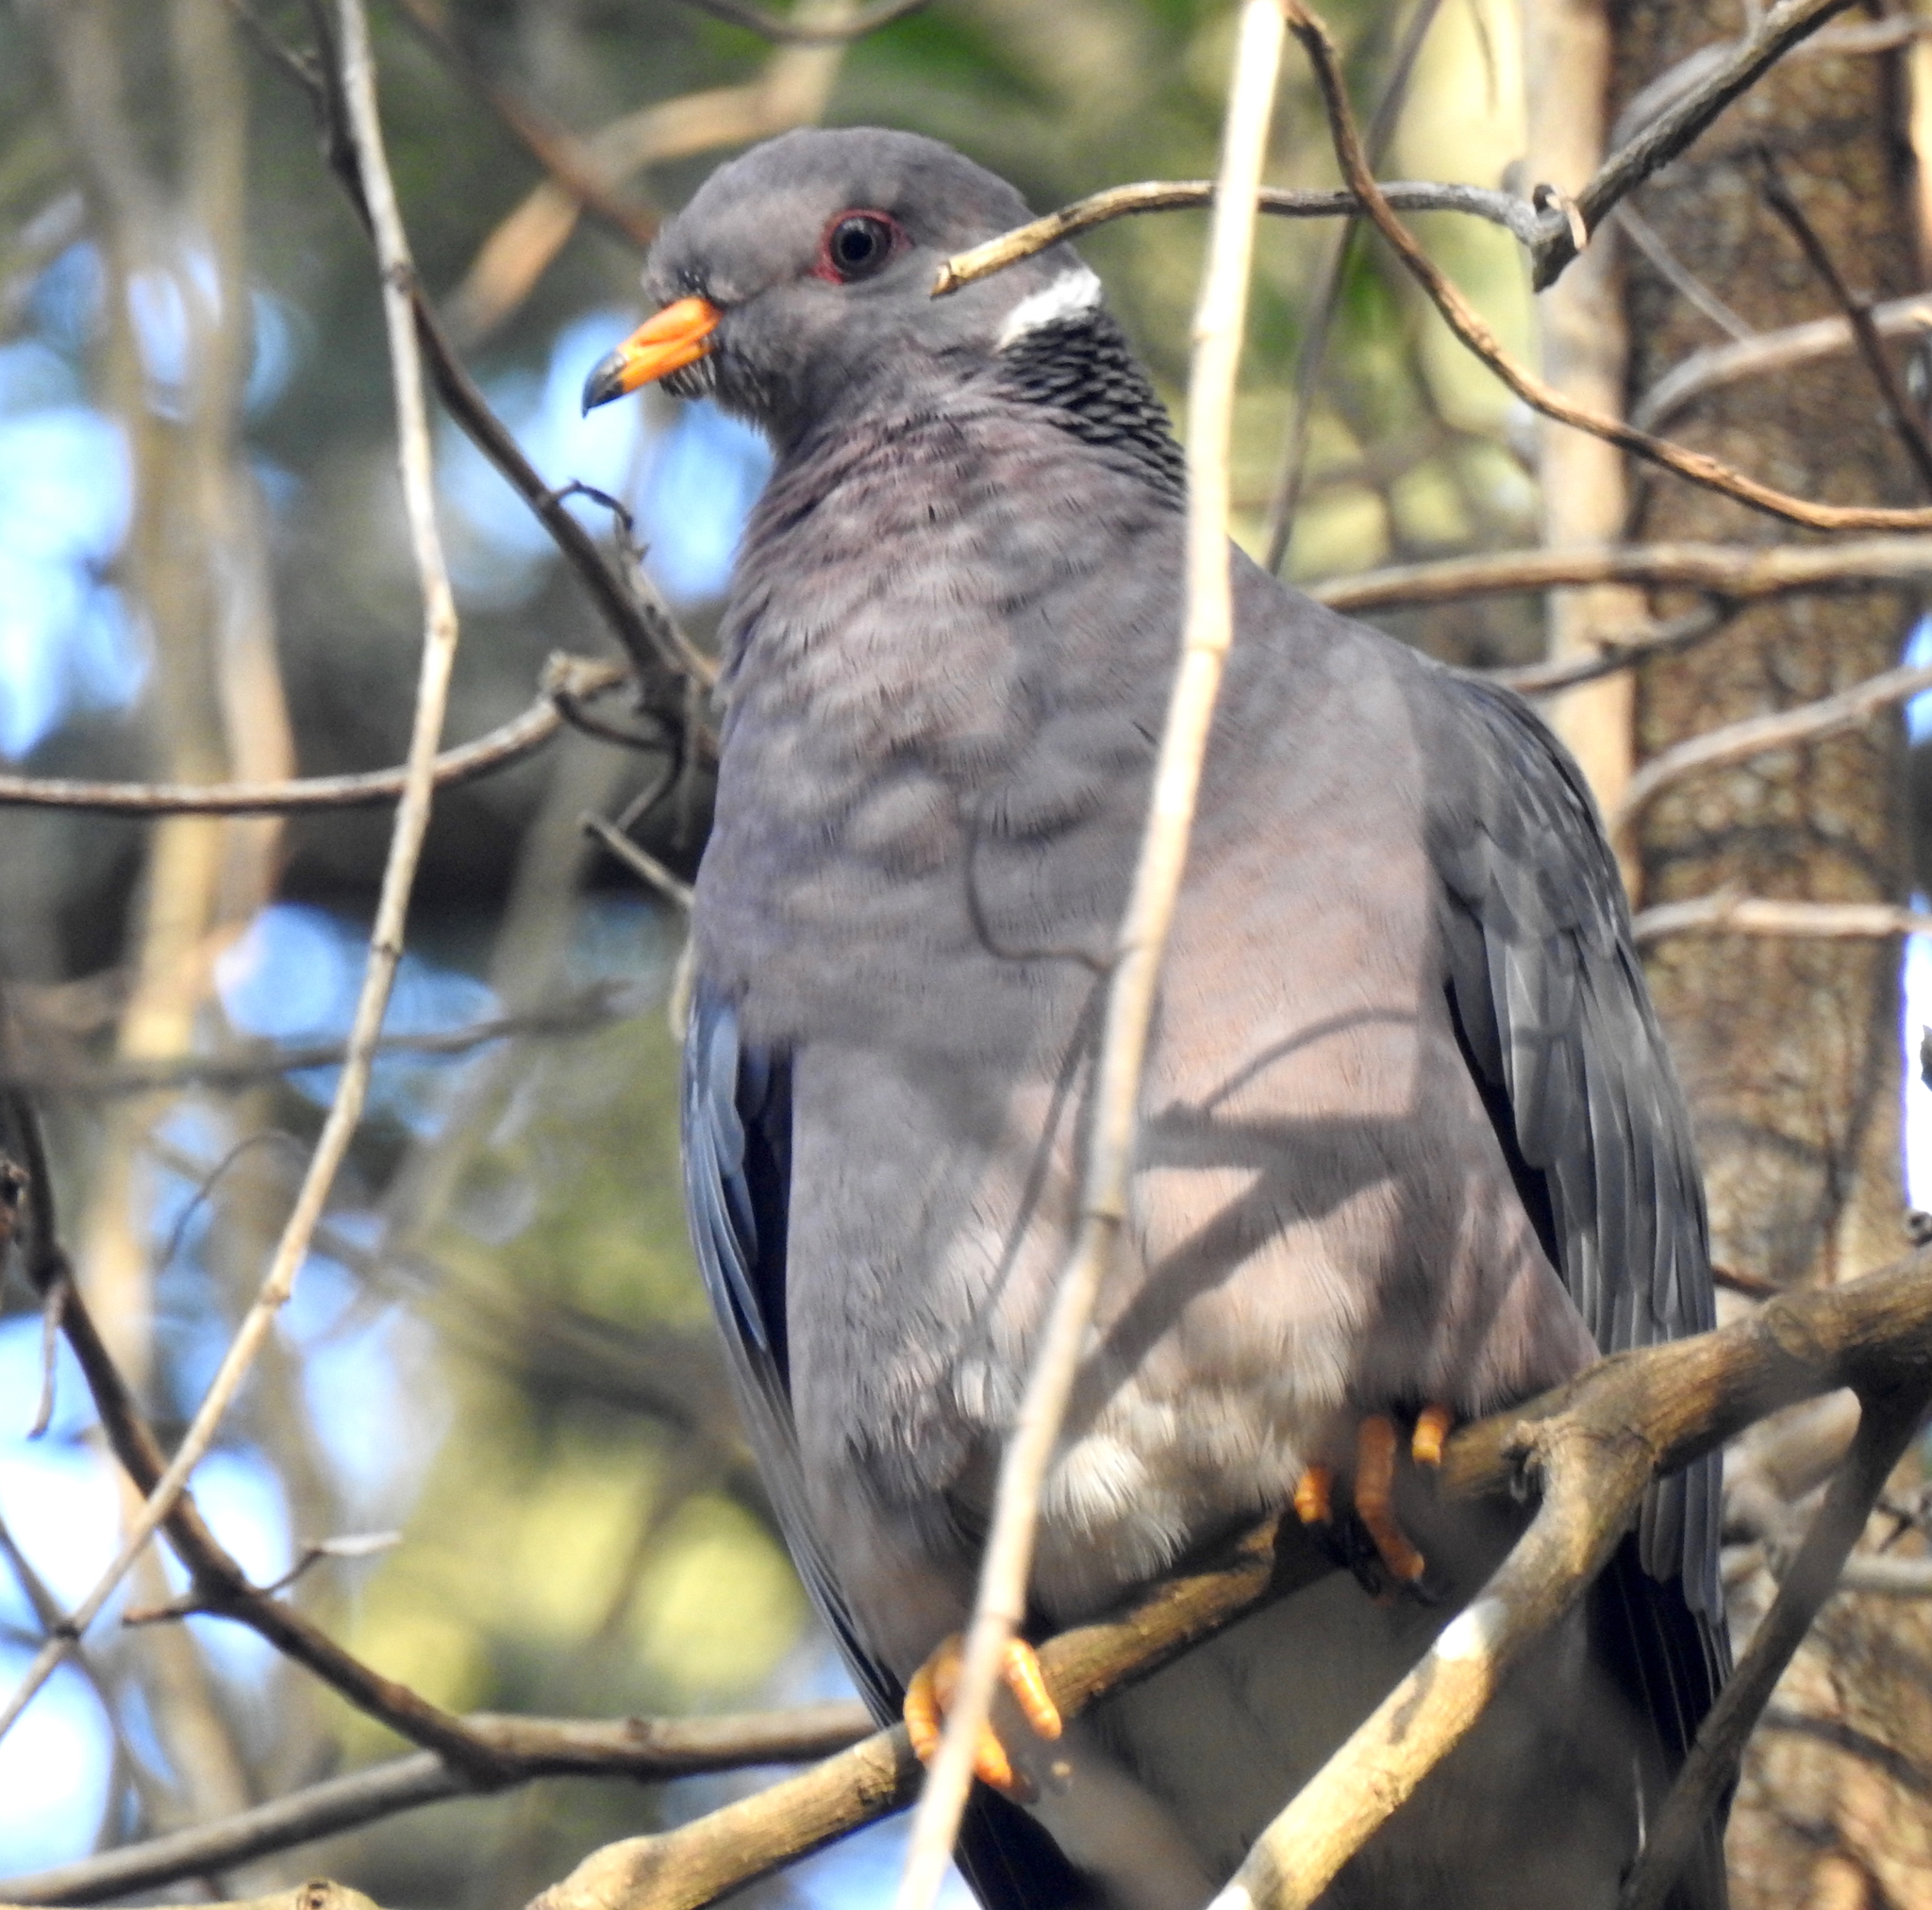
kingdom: Animalia
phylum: Chordata
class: Aves
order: Columbiformes
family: Columbidae
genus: Patagioenas
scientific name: Patagioenas fasciata
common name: Band-tailed pigeon
